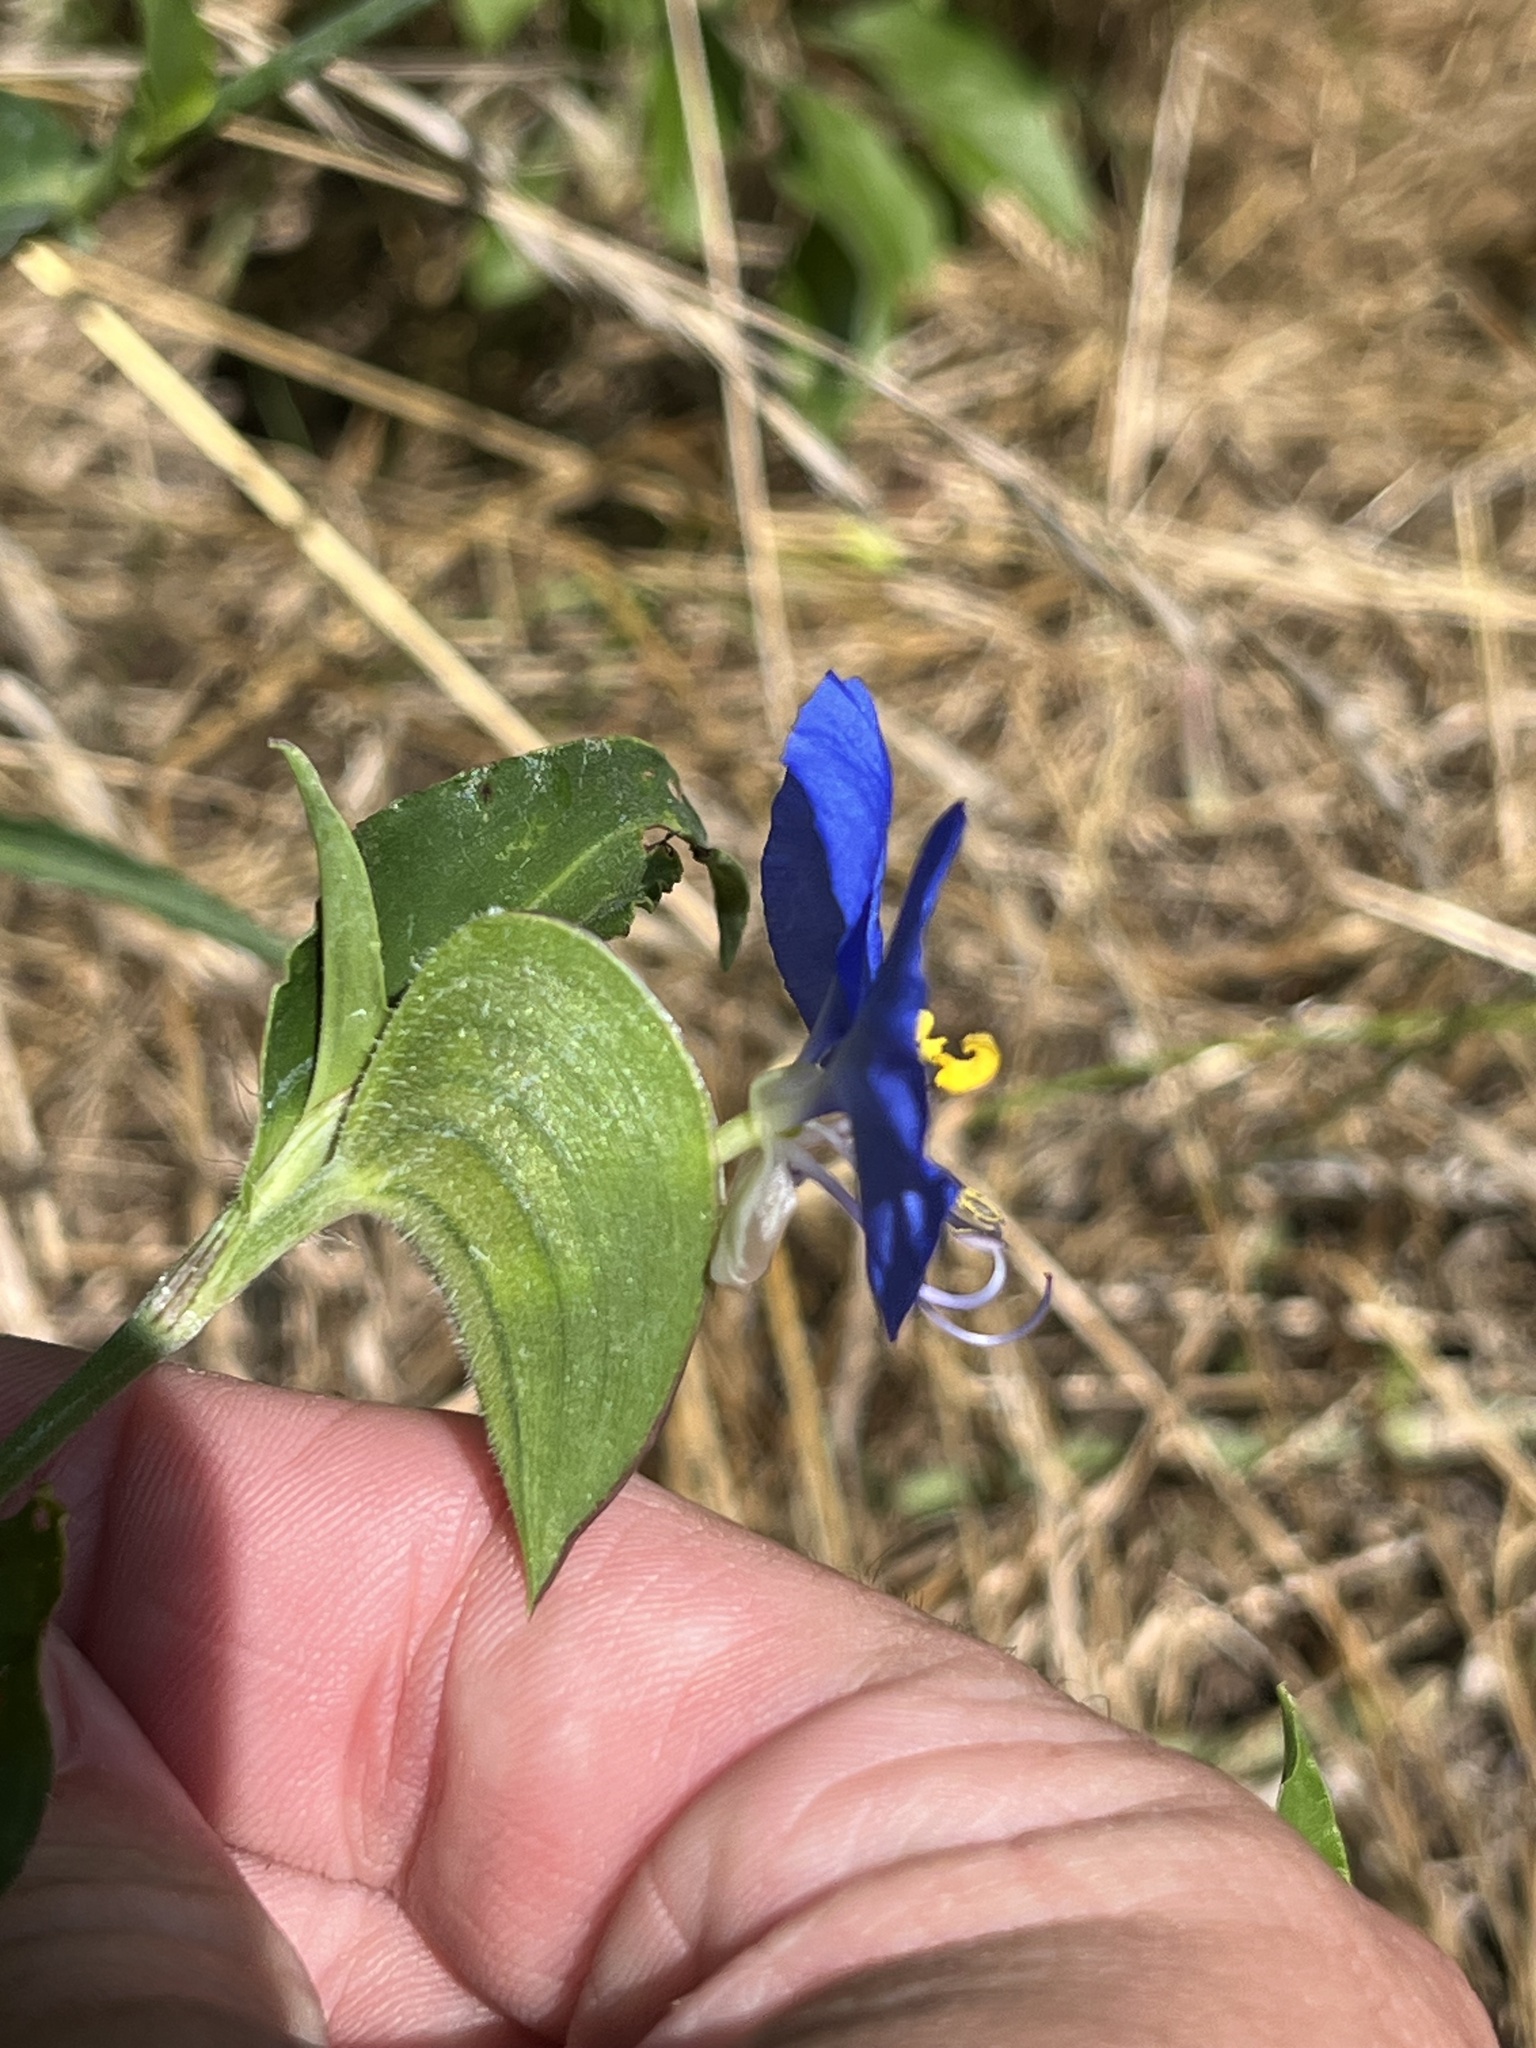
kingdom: Plantae
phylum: Tracheophyta
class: Liliopsida
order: Commelinales
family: Commelinaceae
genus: Commelina
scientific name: Commelina erecta
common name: Blousel blommetjie
